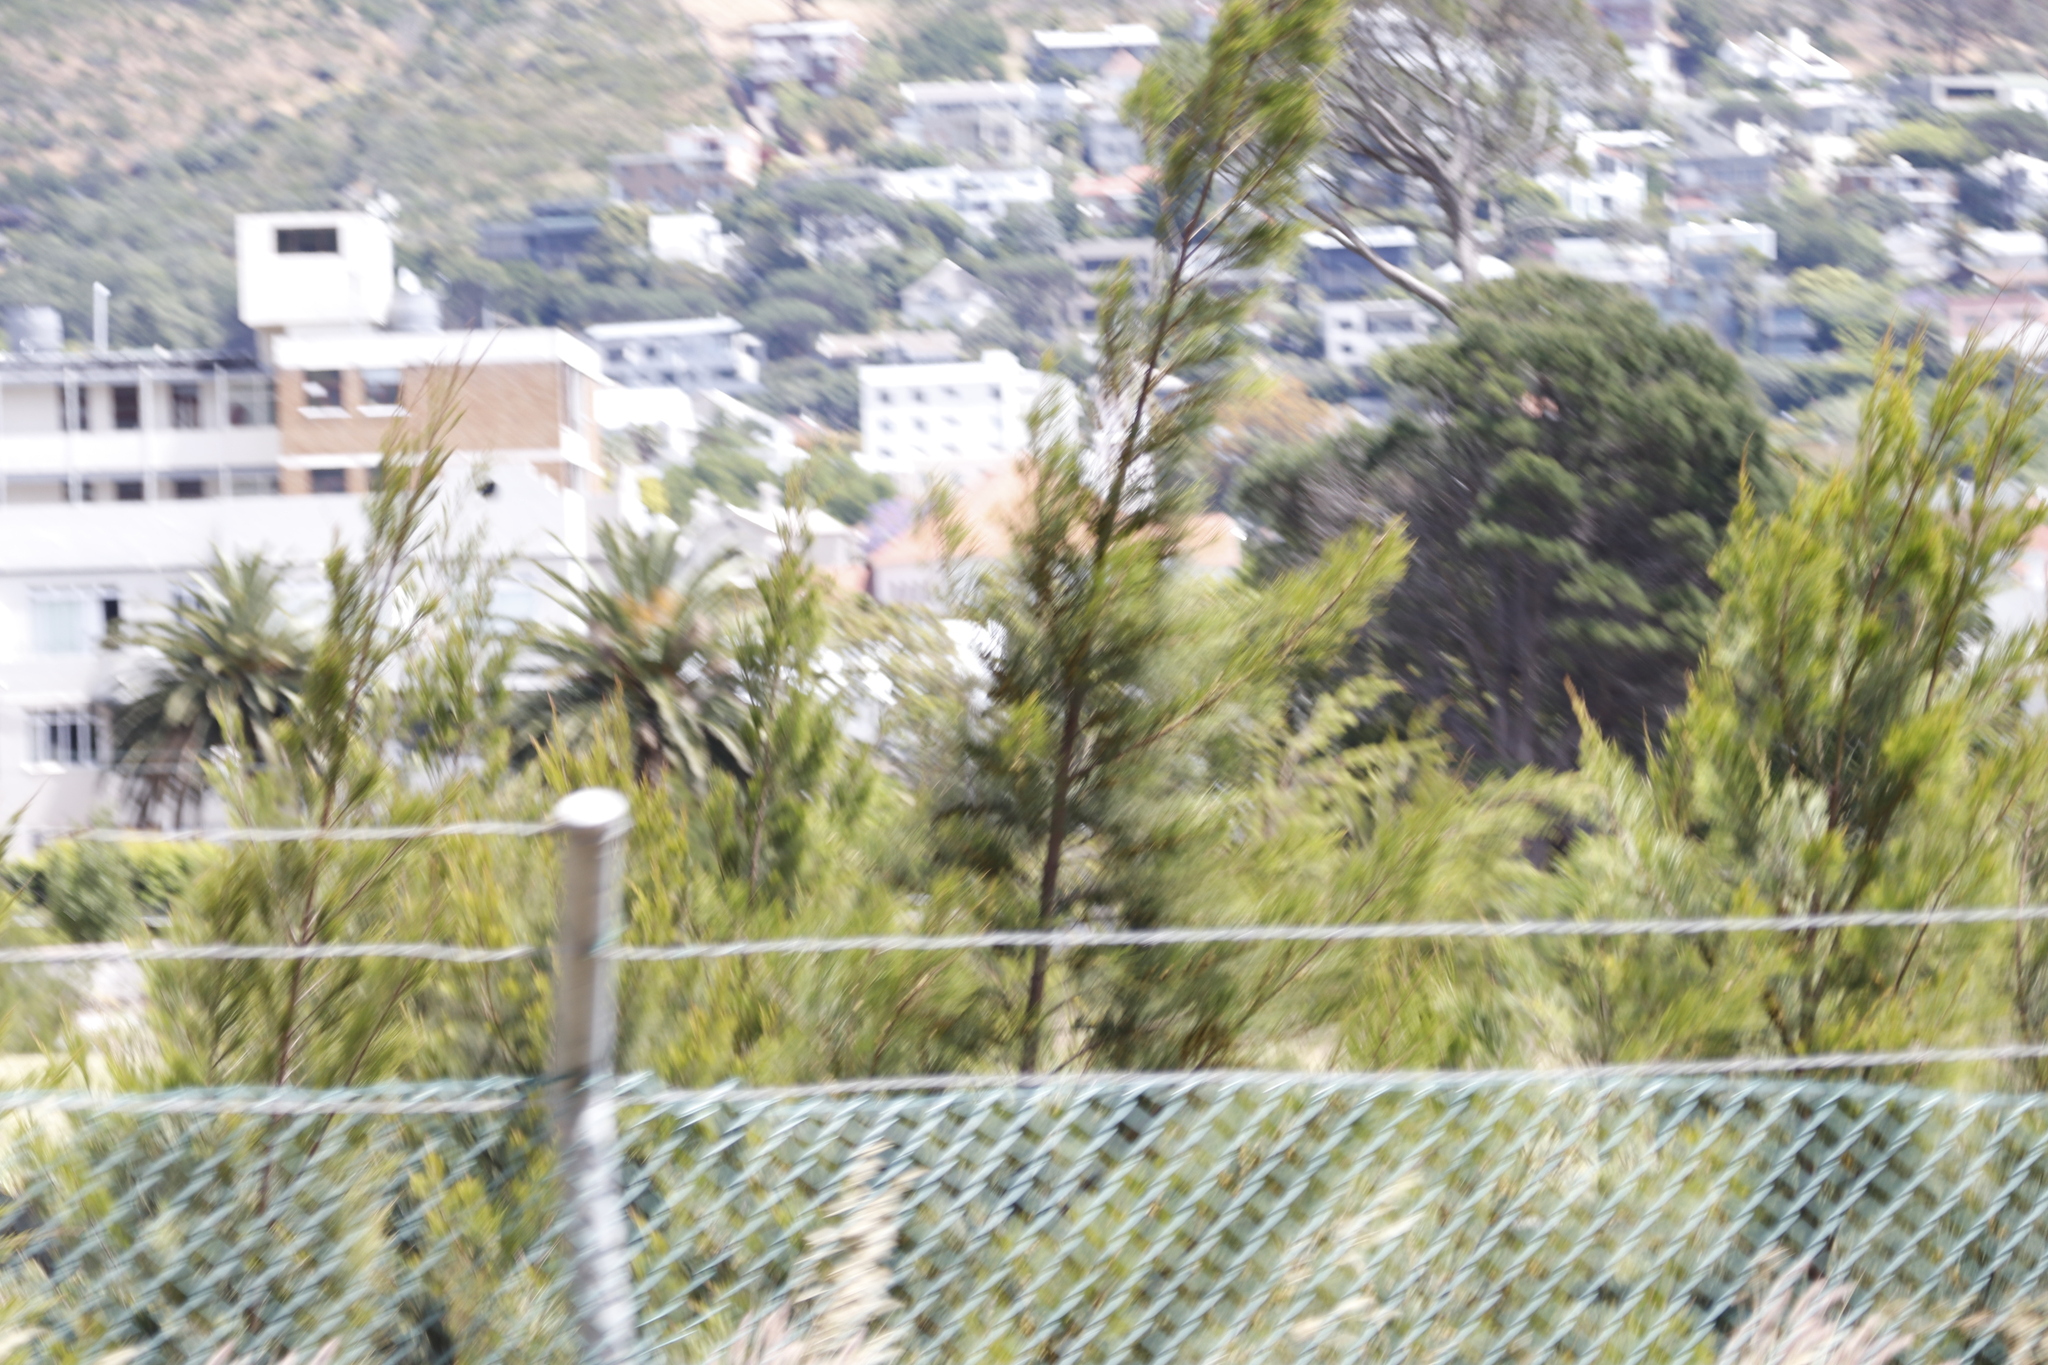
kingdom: Plantae
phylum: Tracheophyta
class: Magnoliopsida
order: Fagales
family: Casuarinaceae
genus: Casuarina
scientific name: Casuarina cunninghamiana
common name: River sheoak
